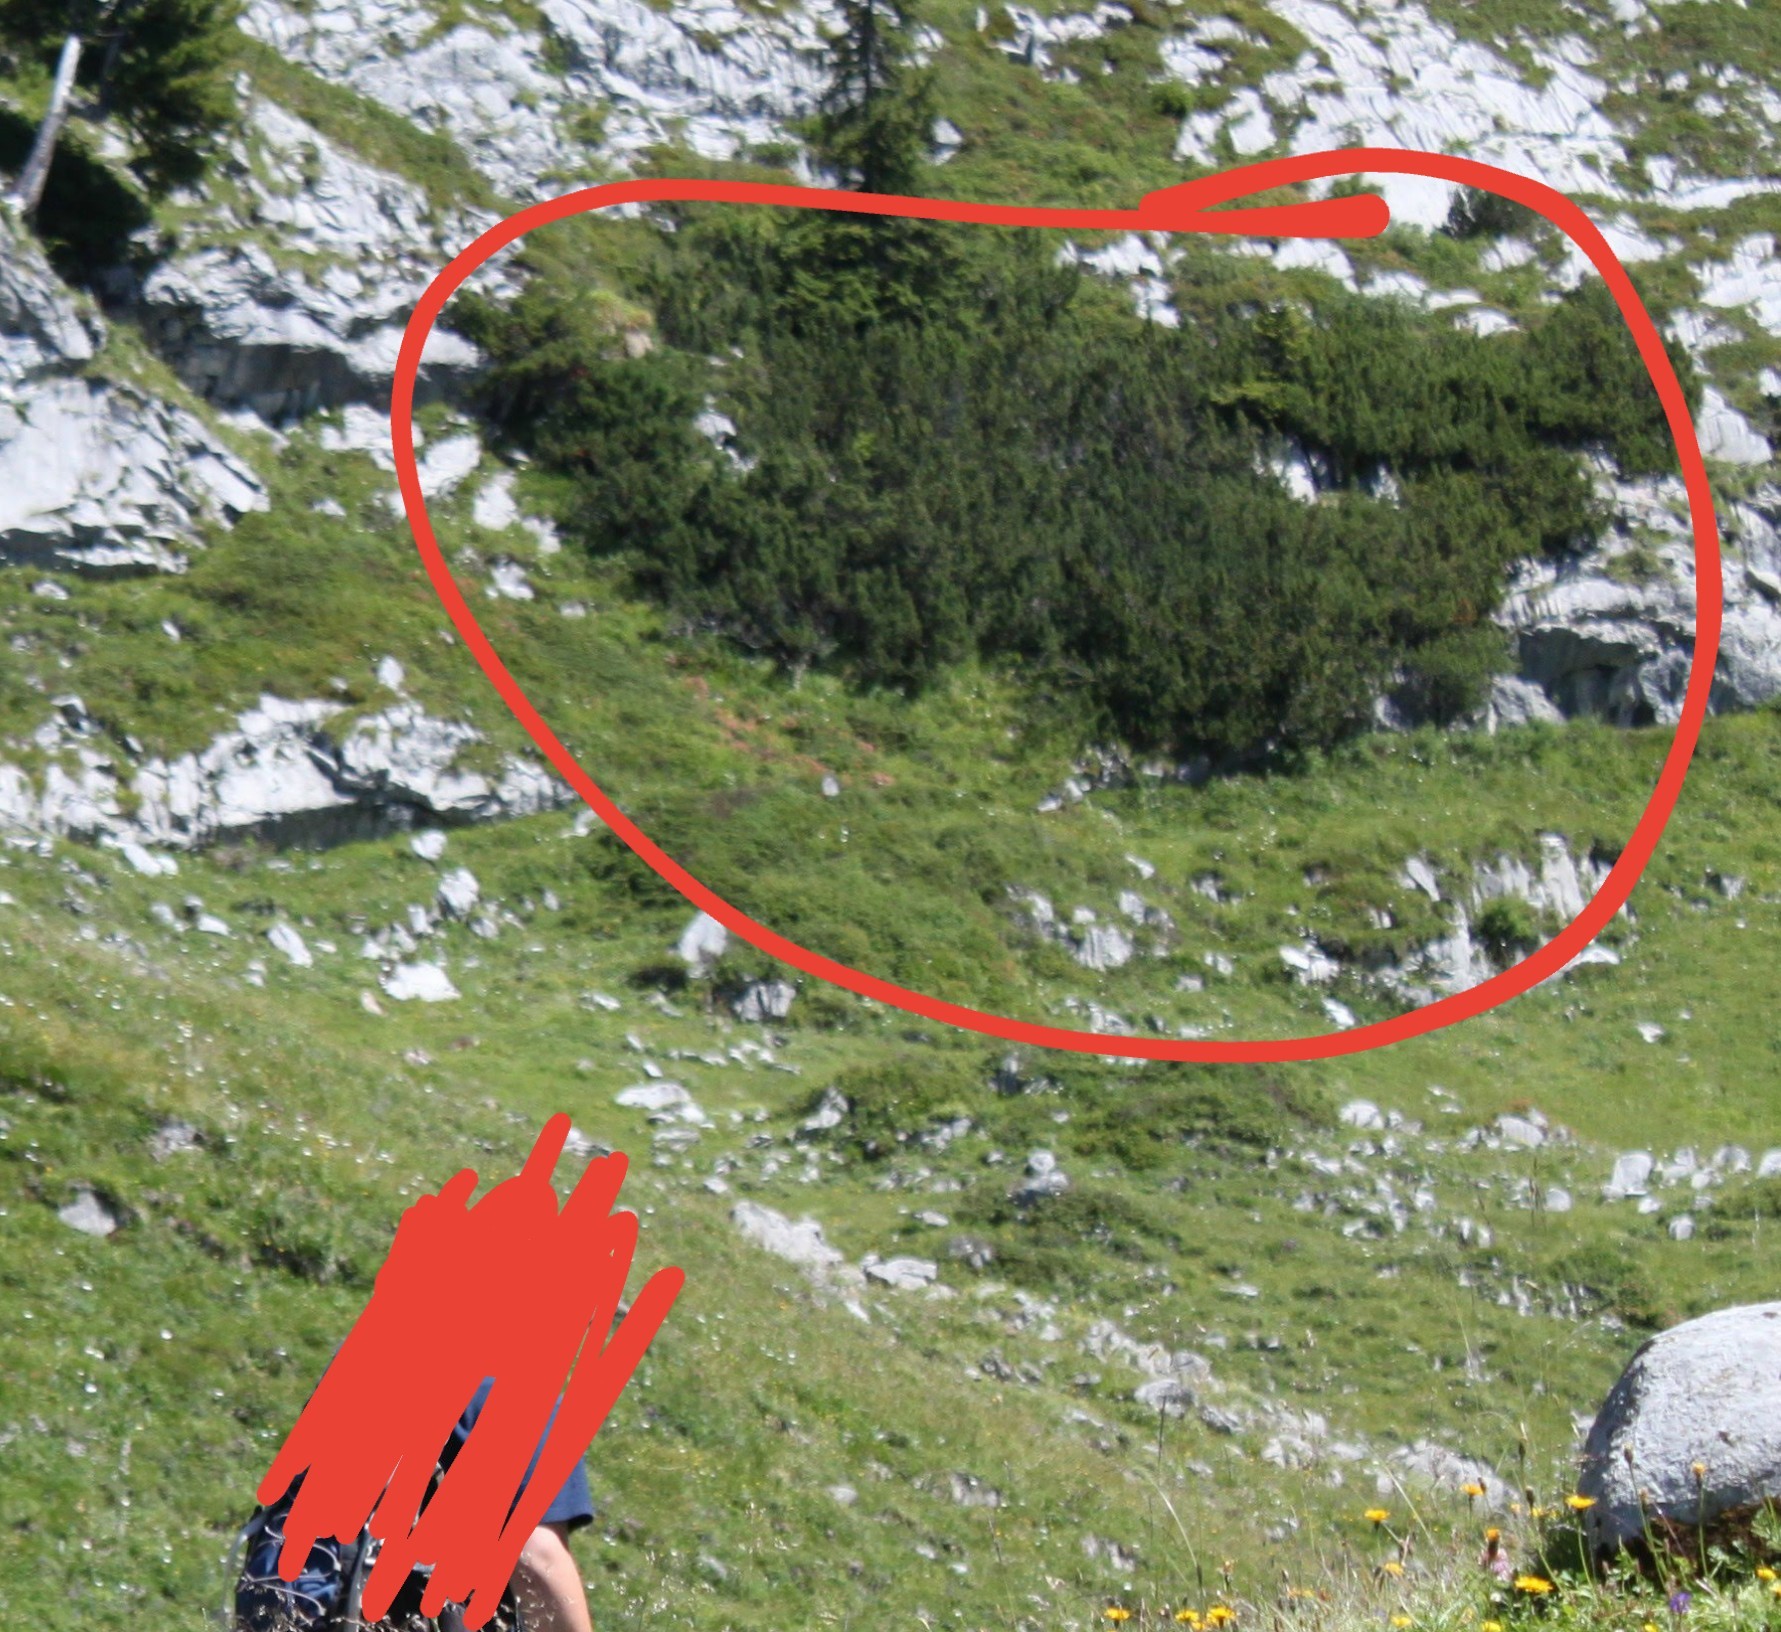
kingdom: Plantae
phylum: Tracheophyta
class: Pinopsida
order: Pinales
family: Pinaceae
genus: Pinus
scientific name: Pinus mugo
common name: Mugo pine
